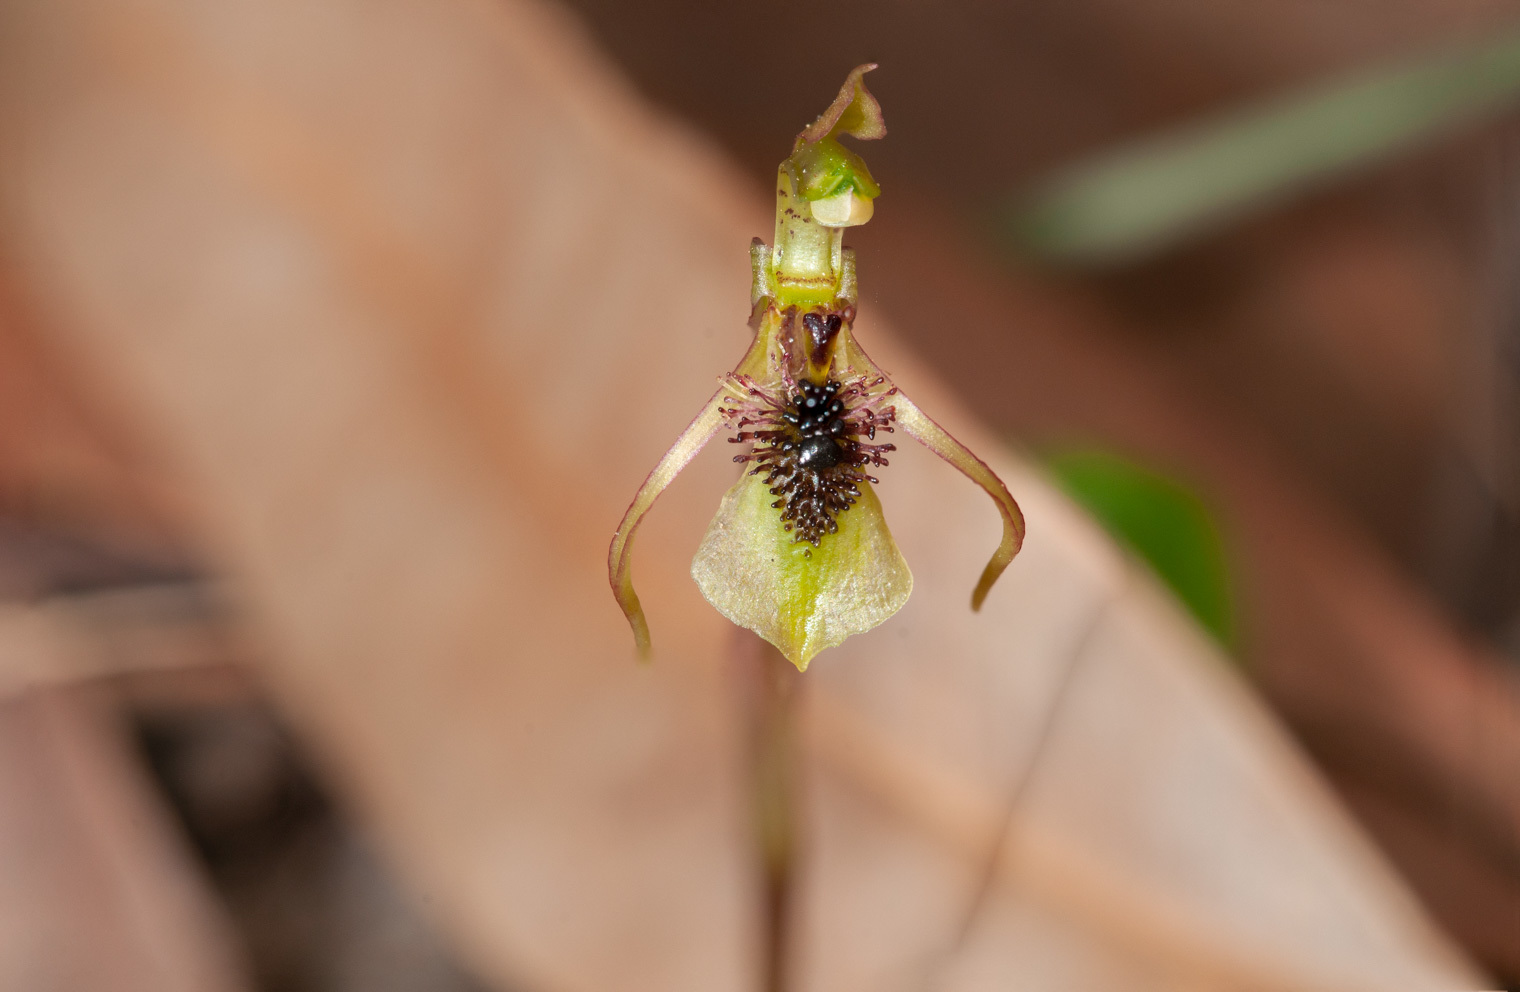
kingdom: Plantae
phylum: Tracheophyta
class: Liliopsida
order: Asparagales
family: Orchidaceae
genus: Chiloglottis
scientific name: Chiloglottis seminuda
